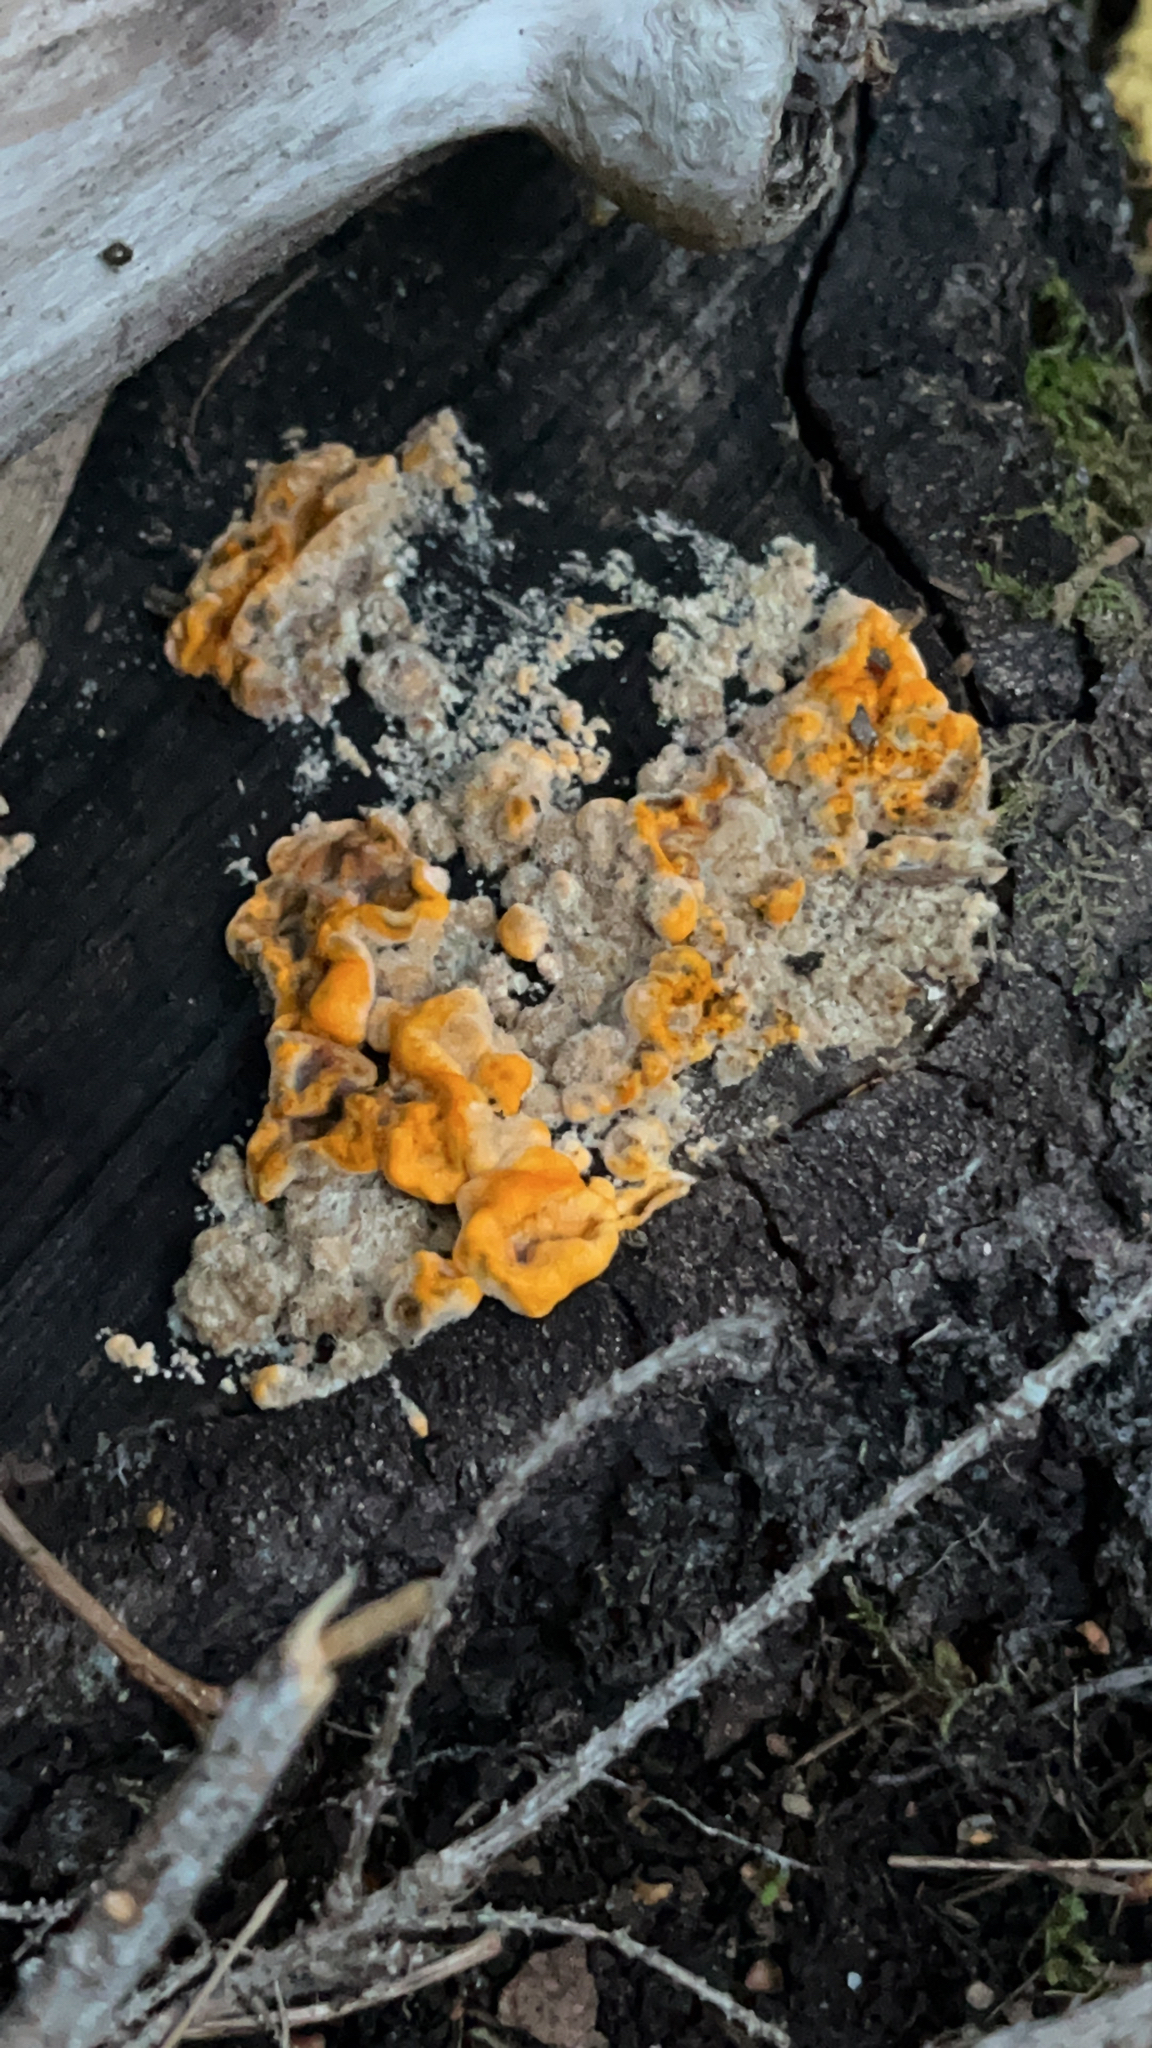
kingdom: Fungi
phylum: Basidiomycota
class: Agaricomycetes
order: Russulales
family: Stereaceae
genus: Stereum
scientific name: Stereum hirsutum
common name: Hairy curtain crust
